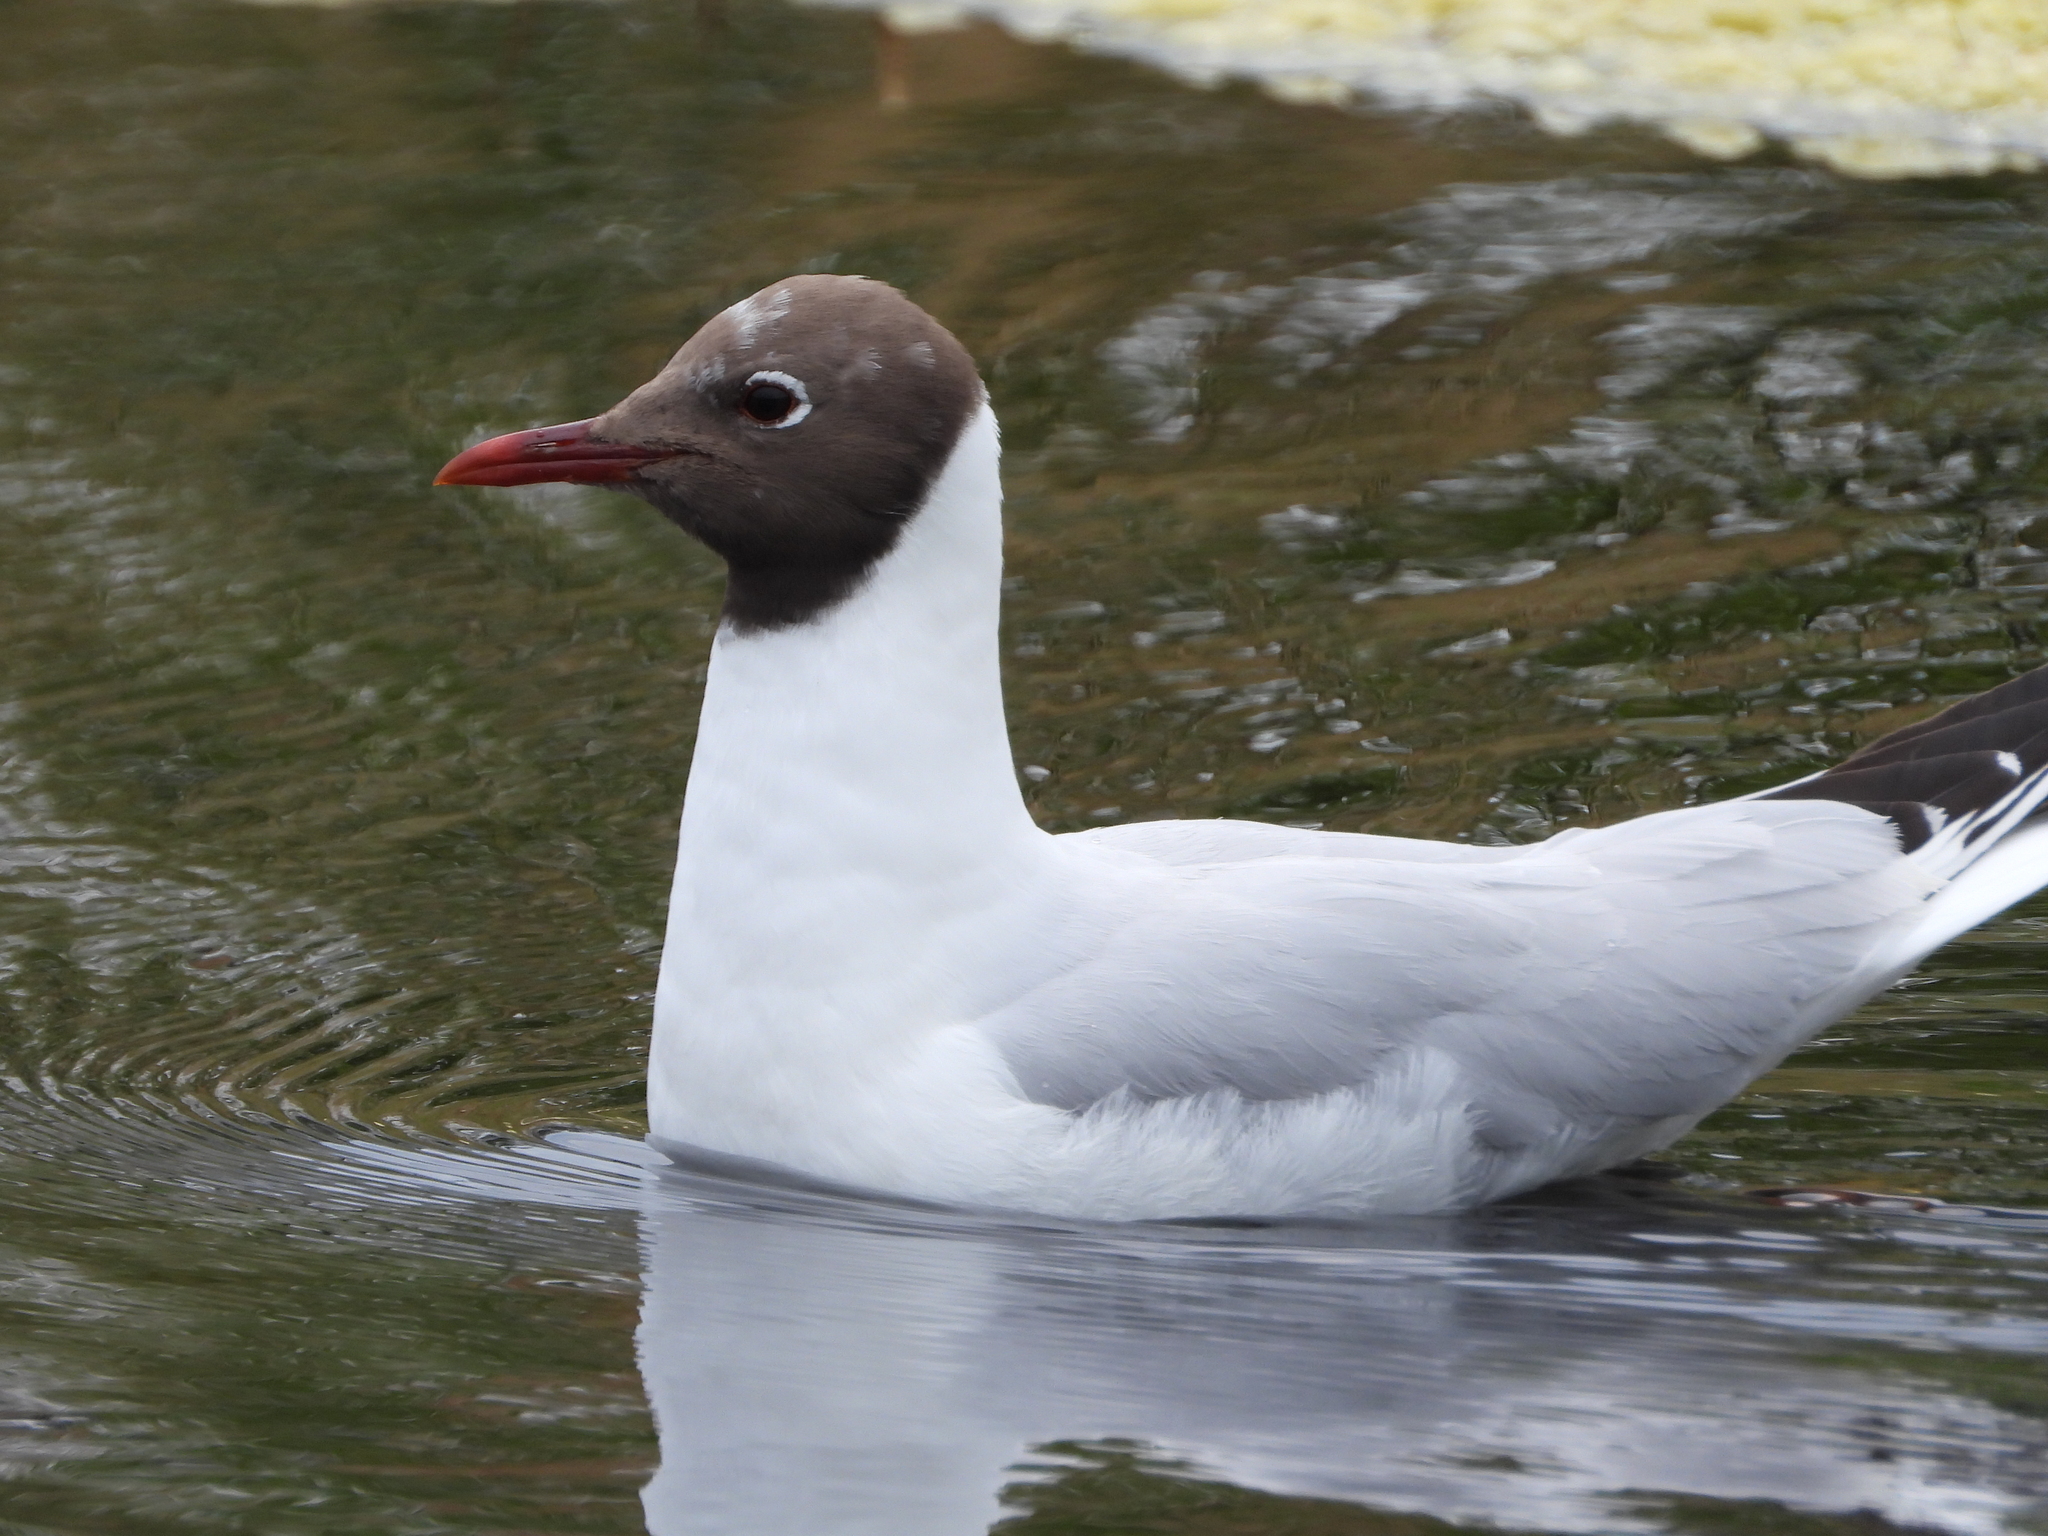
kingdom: Animalia
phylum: Chordata
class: Aves
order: Charadriiformes
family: Laridae
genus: Chroicocephalus
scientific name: Chroicocephalus ridibundus
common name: Black-headed gull
